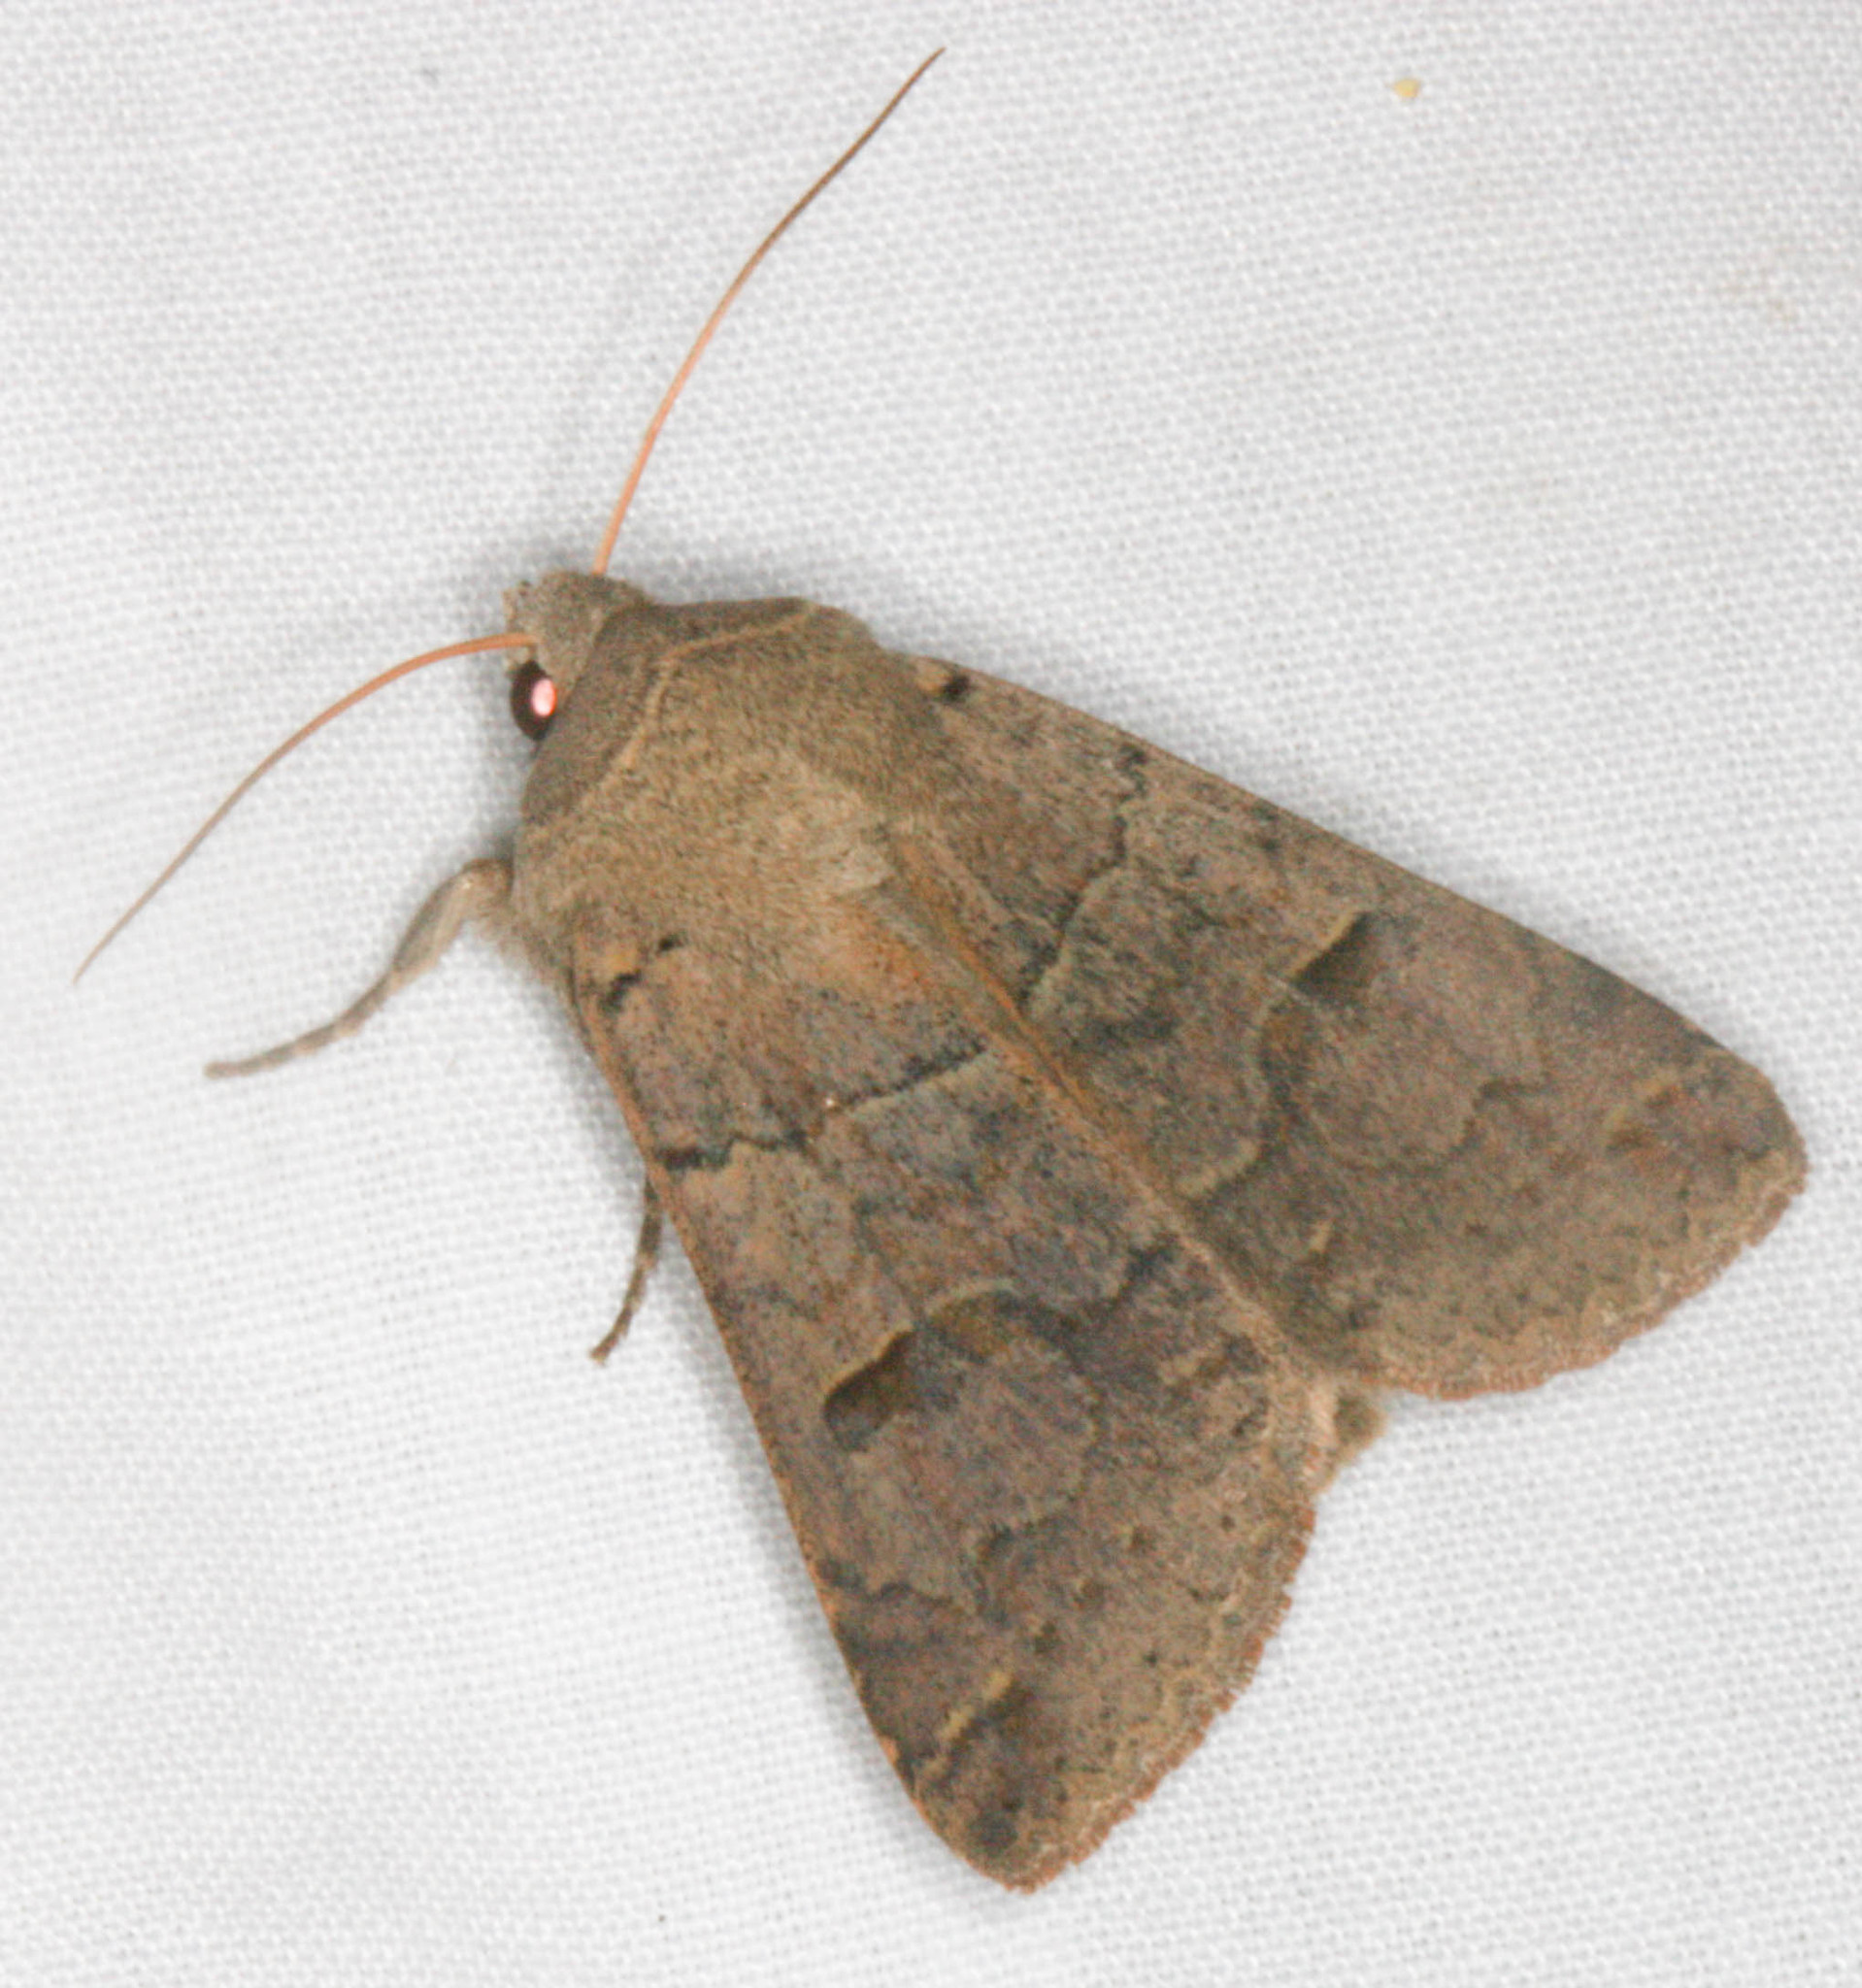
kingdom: Animalia
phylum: Arthropoda
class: Insecta
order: Lepidoptera
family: Erebidae
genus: Cissusa
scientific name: Cissusa indiscreta
